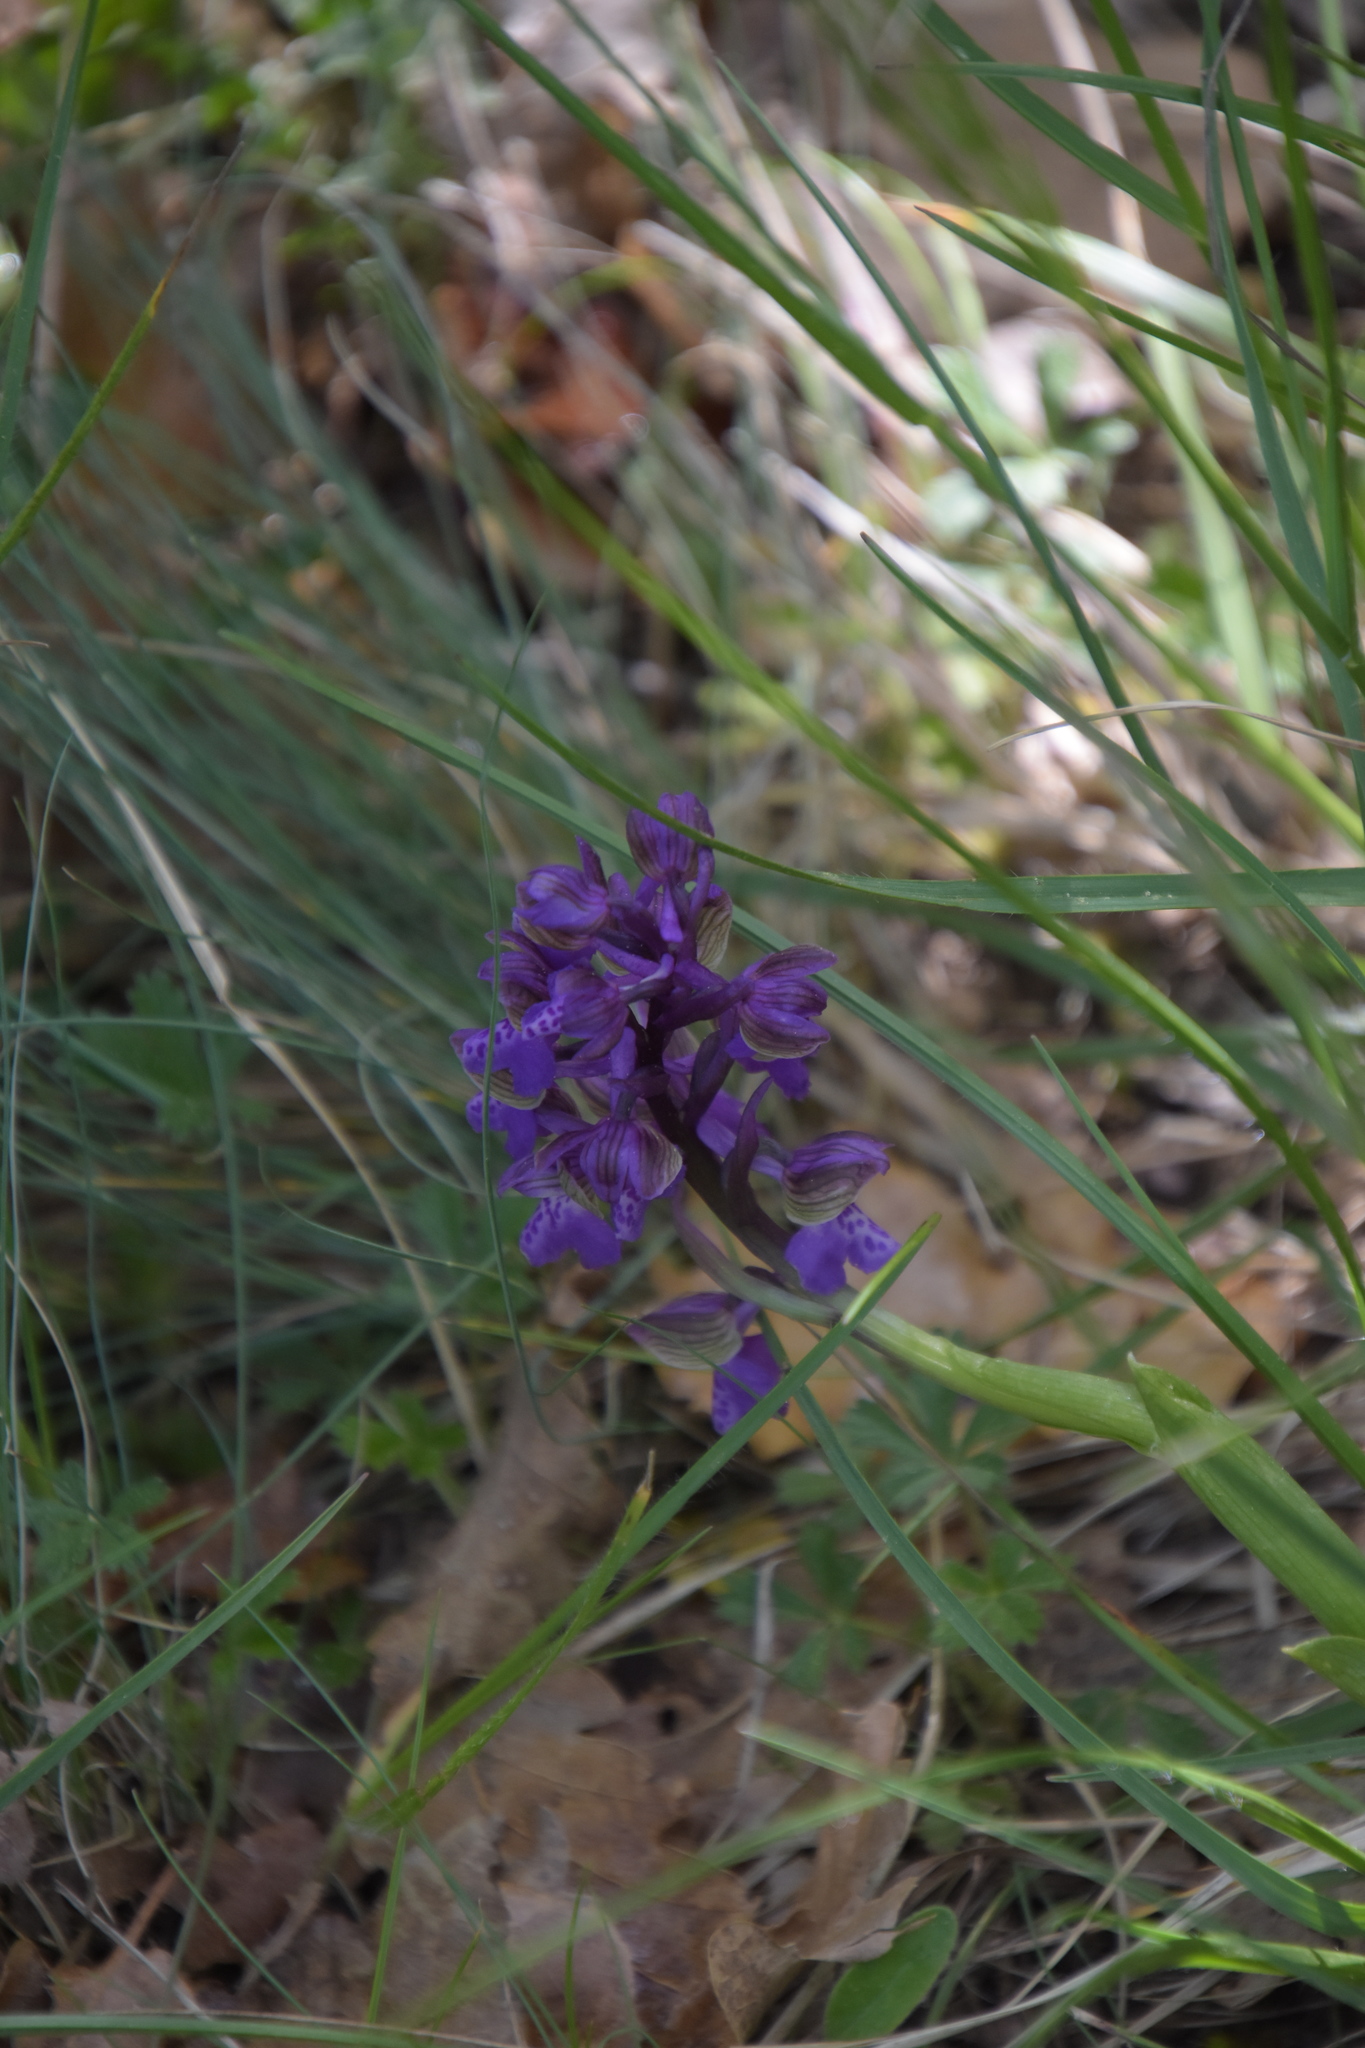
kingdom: Plantae
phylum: Tracheophyta
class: Liliopsida
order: Asparagales
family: Orchidaceae
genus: Anacamptis
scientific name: Anacamptis morio
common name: Green-winged orchid
